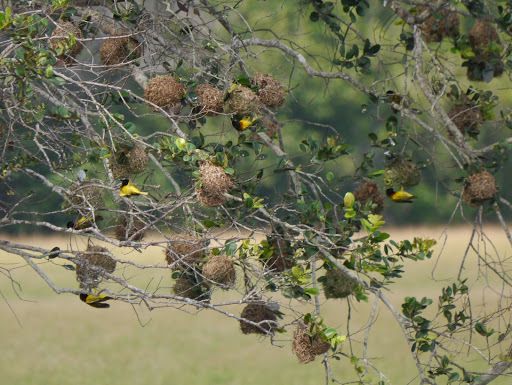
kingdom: Animalia
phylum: Chordata
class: Aves
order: Passeriformes
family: Ploceidae
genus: Ploceus
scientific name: Ploceus cucullatus
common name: Village weaver
